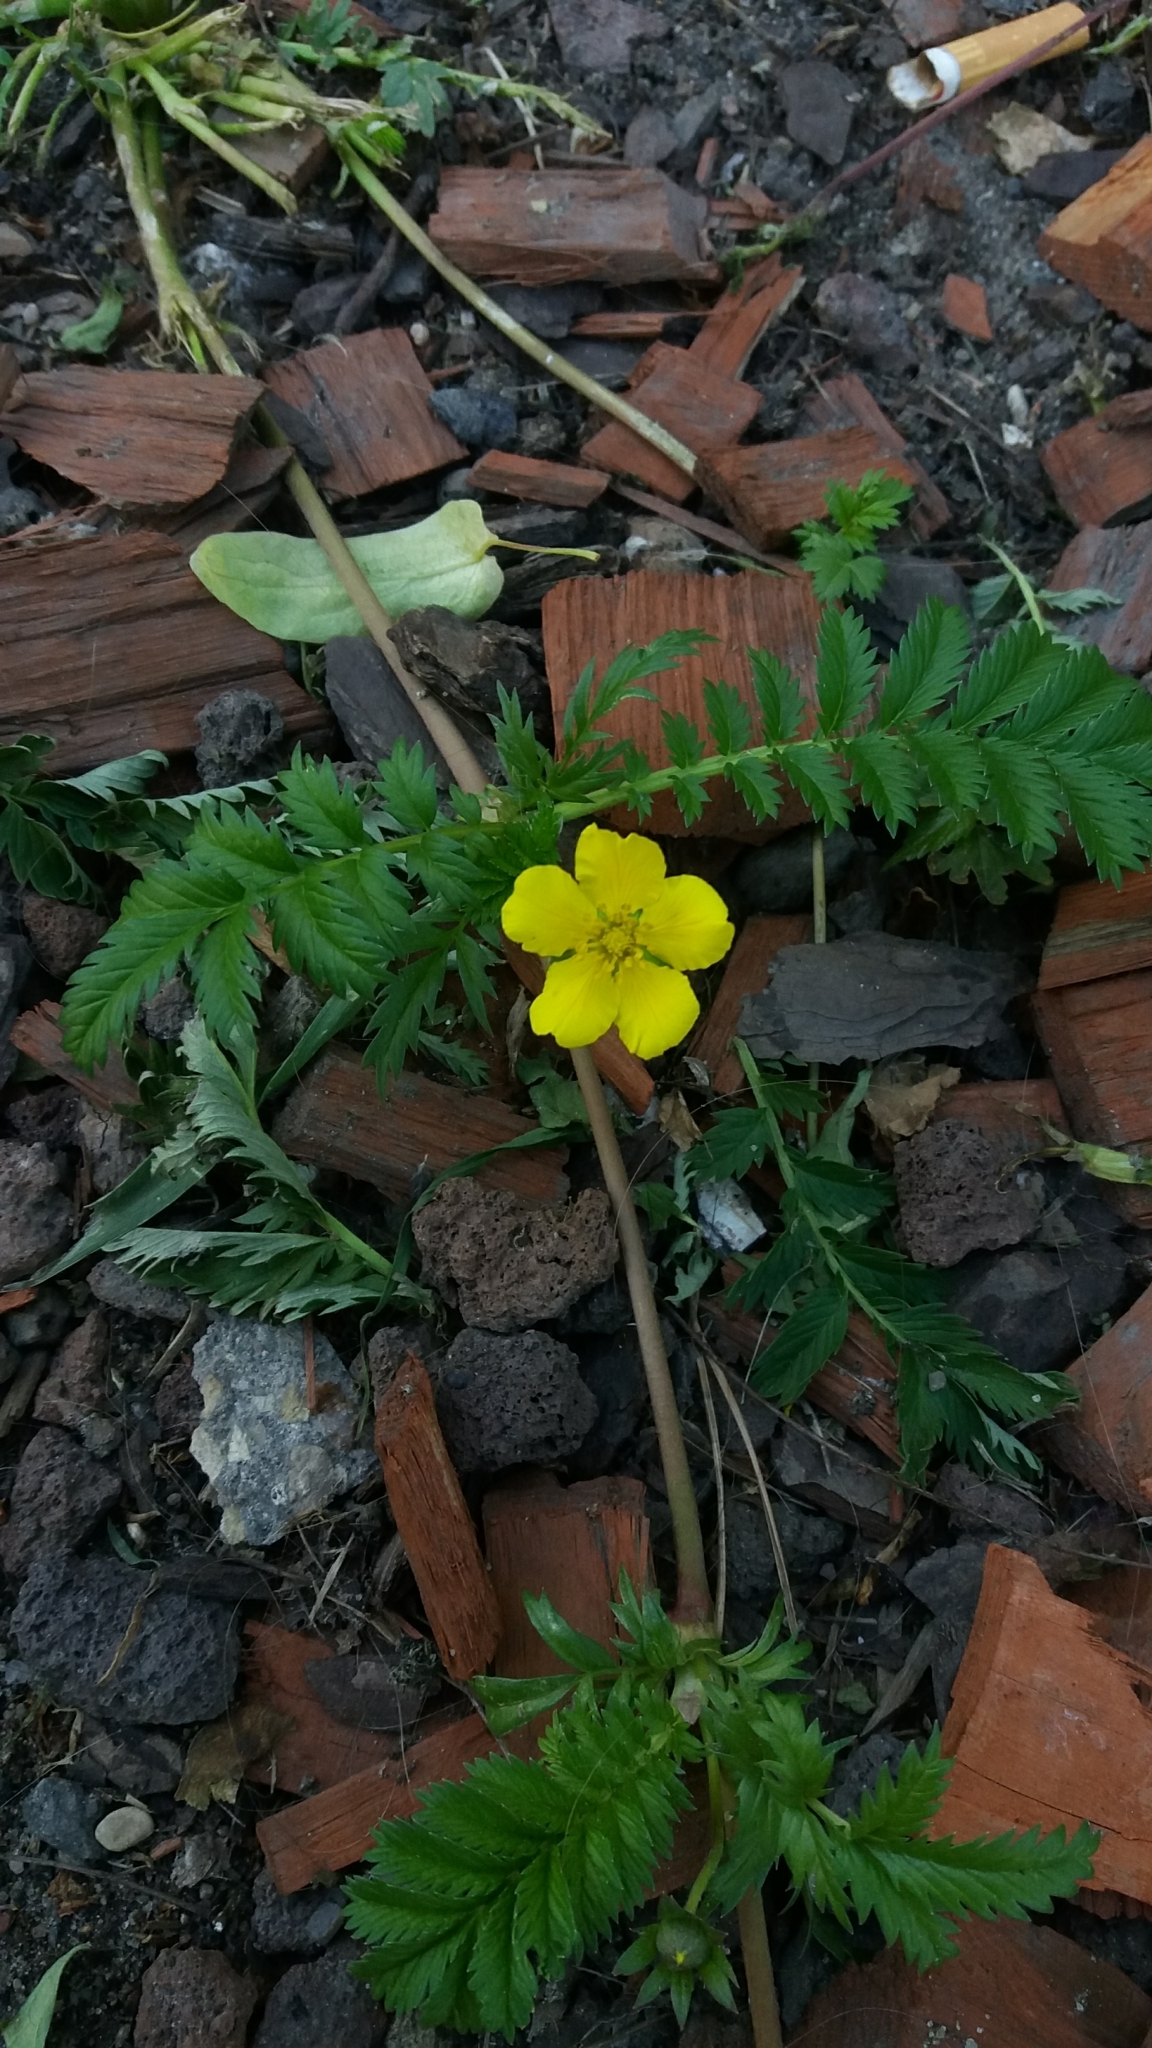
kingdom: Plantae
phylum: Tracheophyta
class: Magnoliopsida
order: Rosales
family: Rosaceae
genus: Argentina
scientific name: Argentina anserina
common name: Common silverweed
